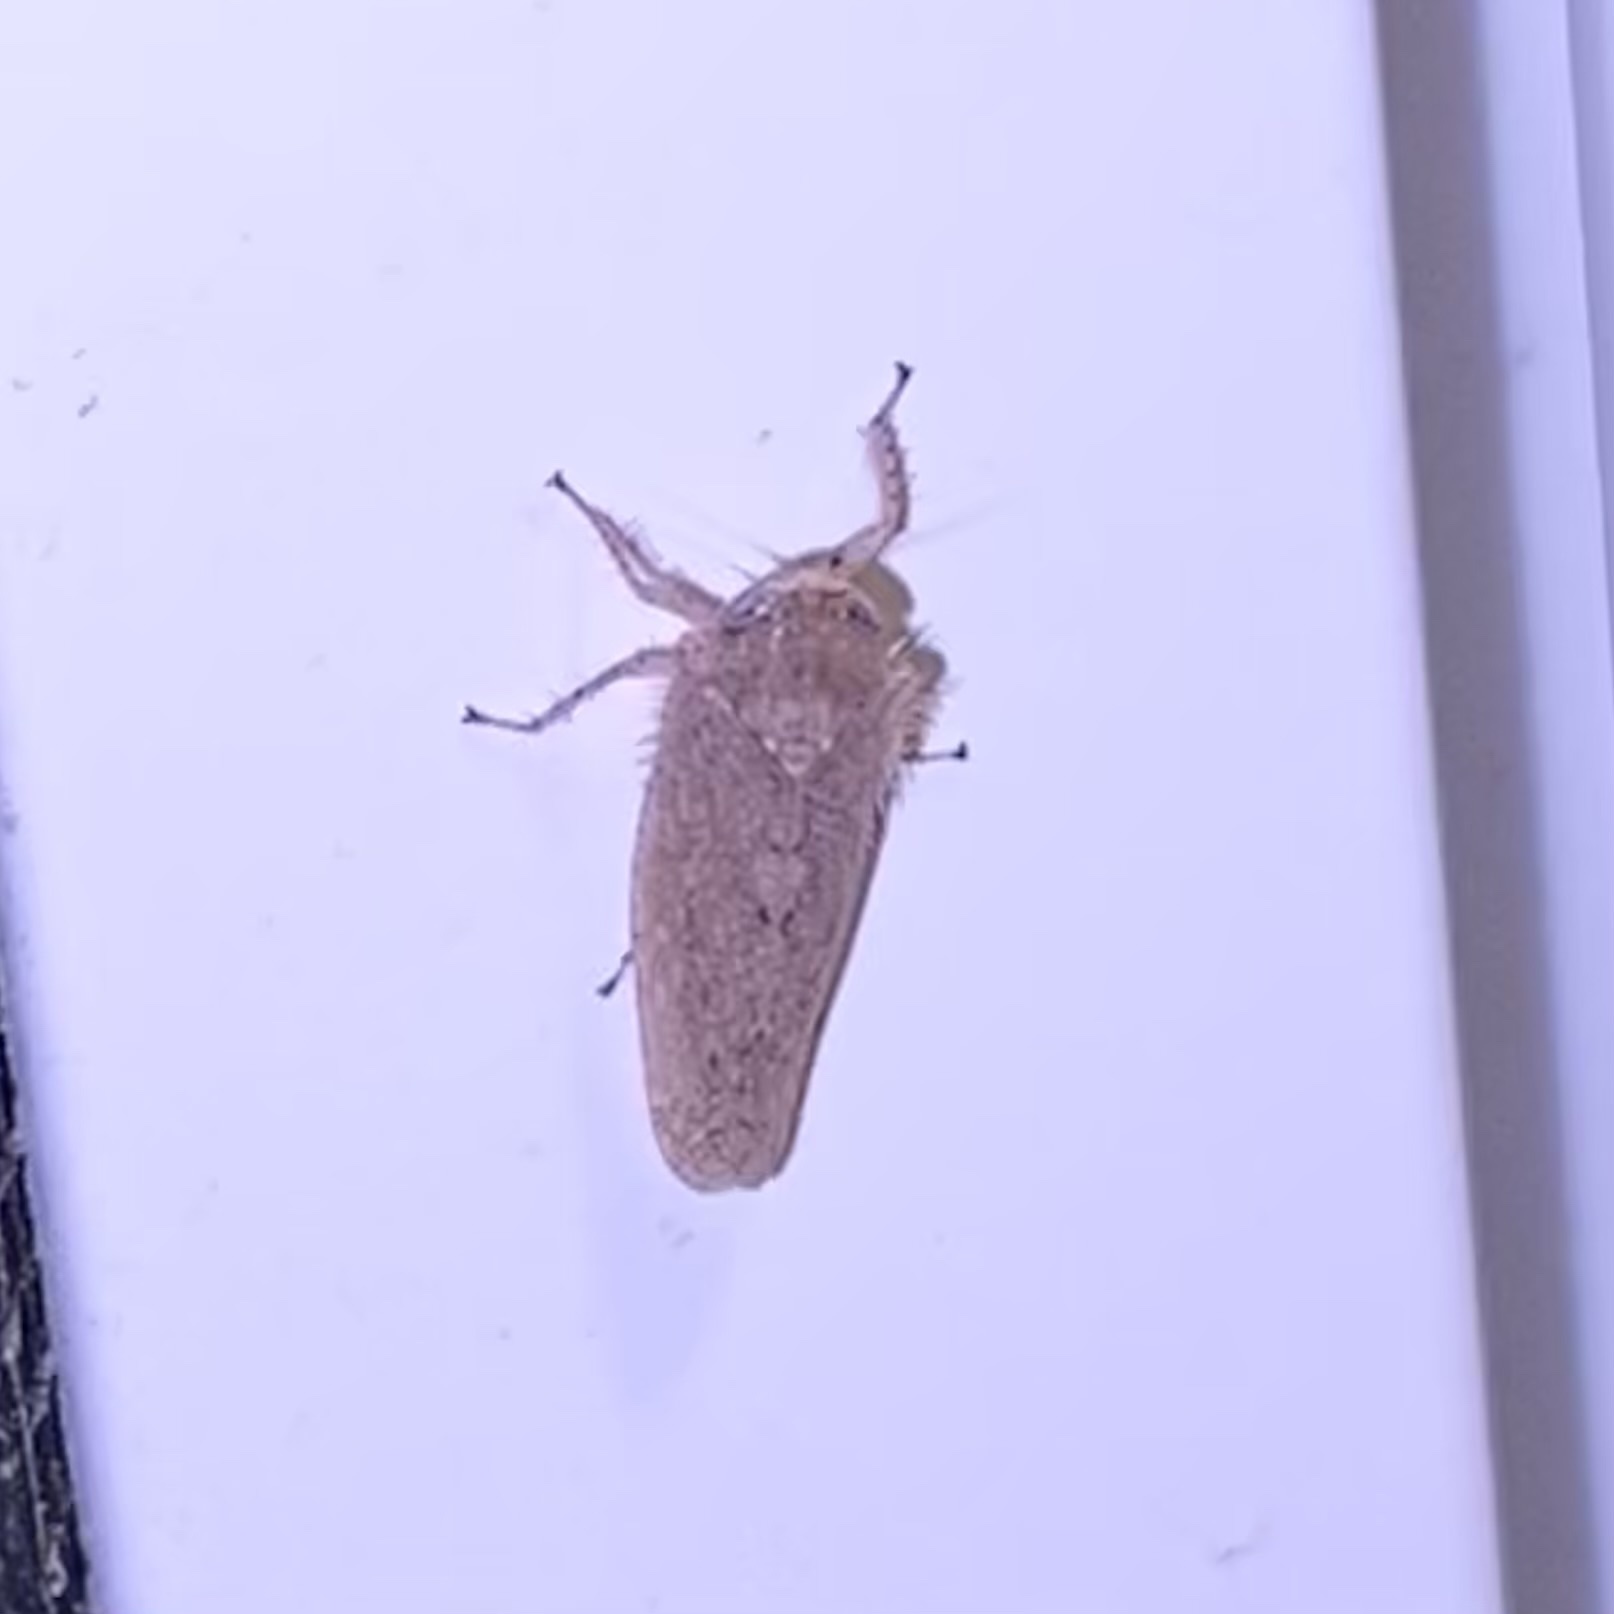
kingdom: Animalia
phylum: Arthropoda
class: Insecta
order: Hemiptera
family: Cicadellidae
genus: Texananus
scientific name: Texananus
